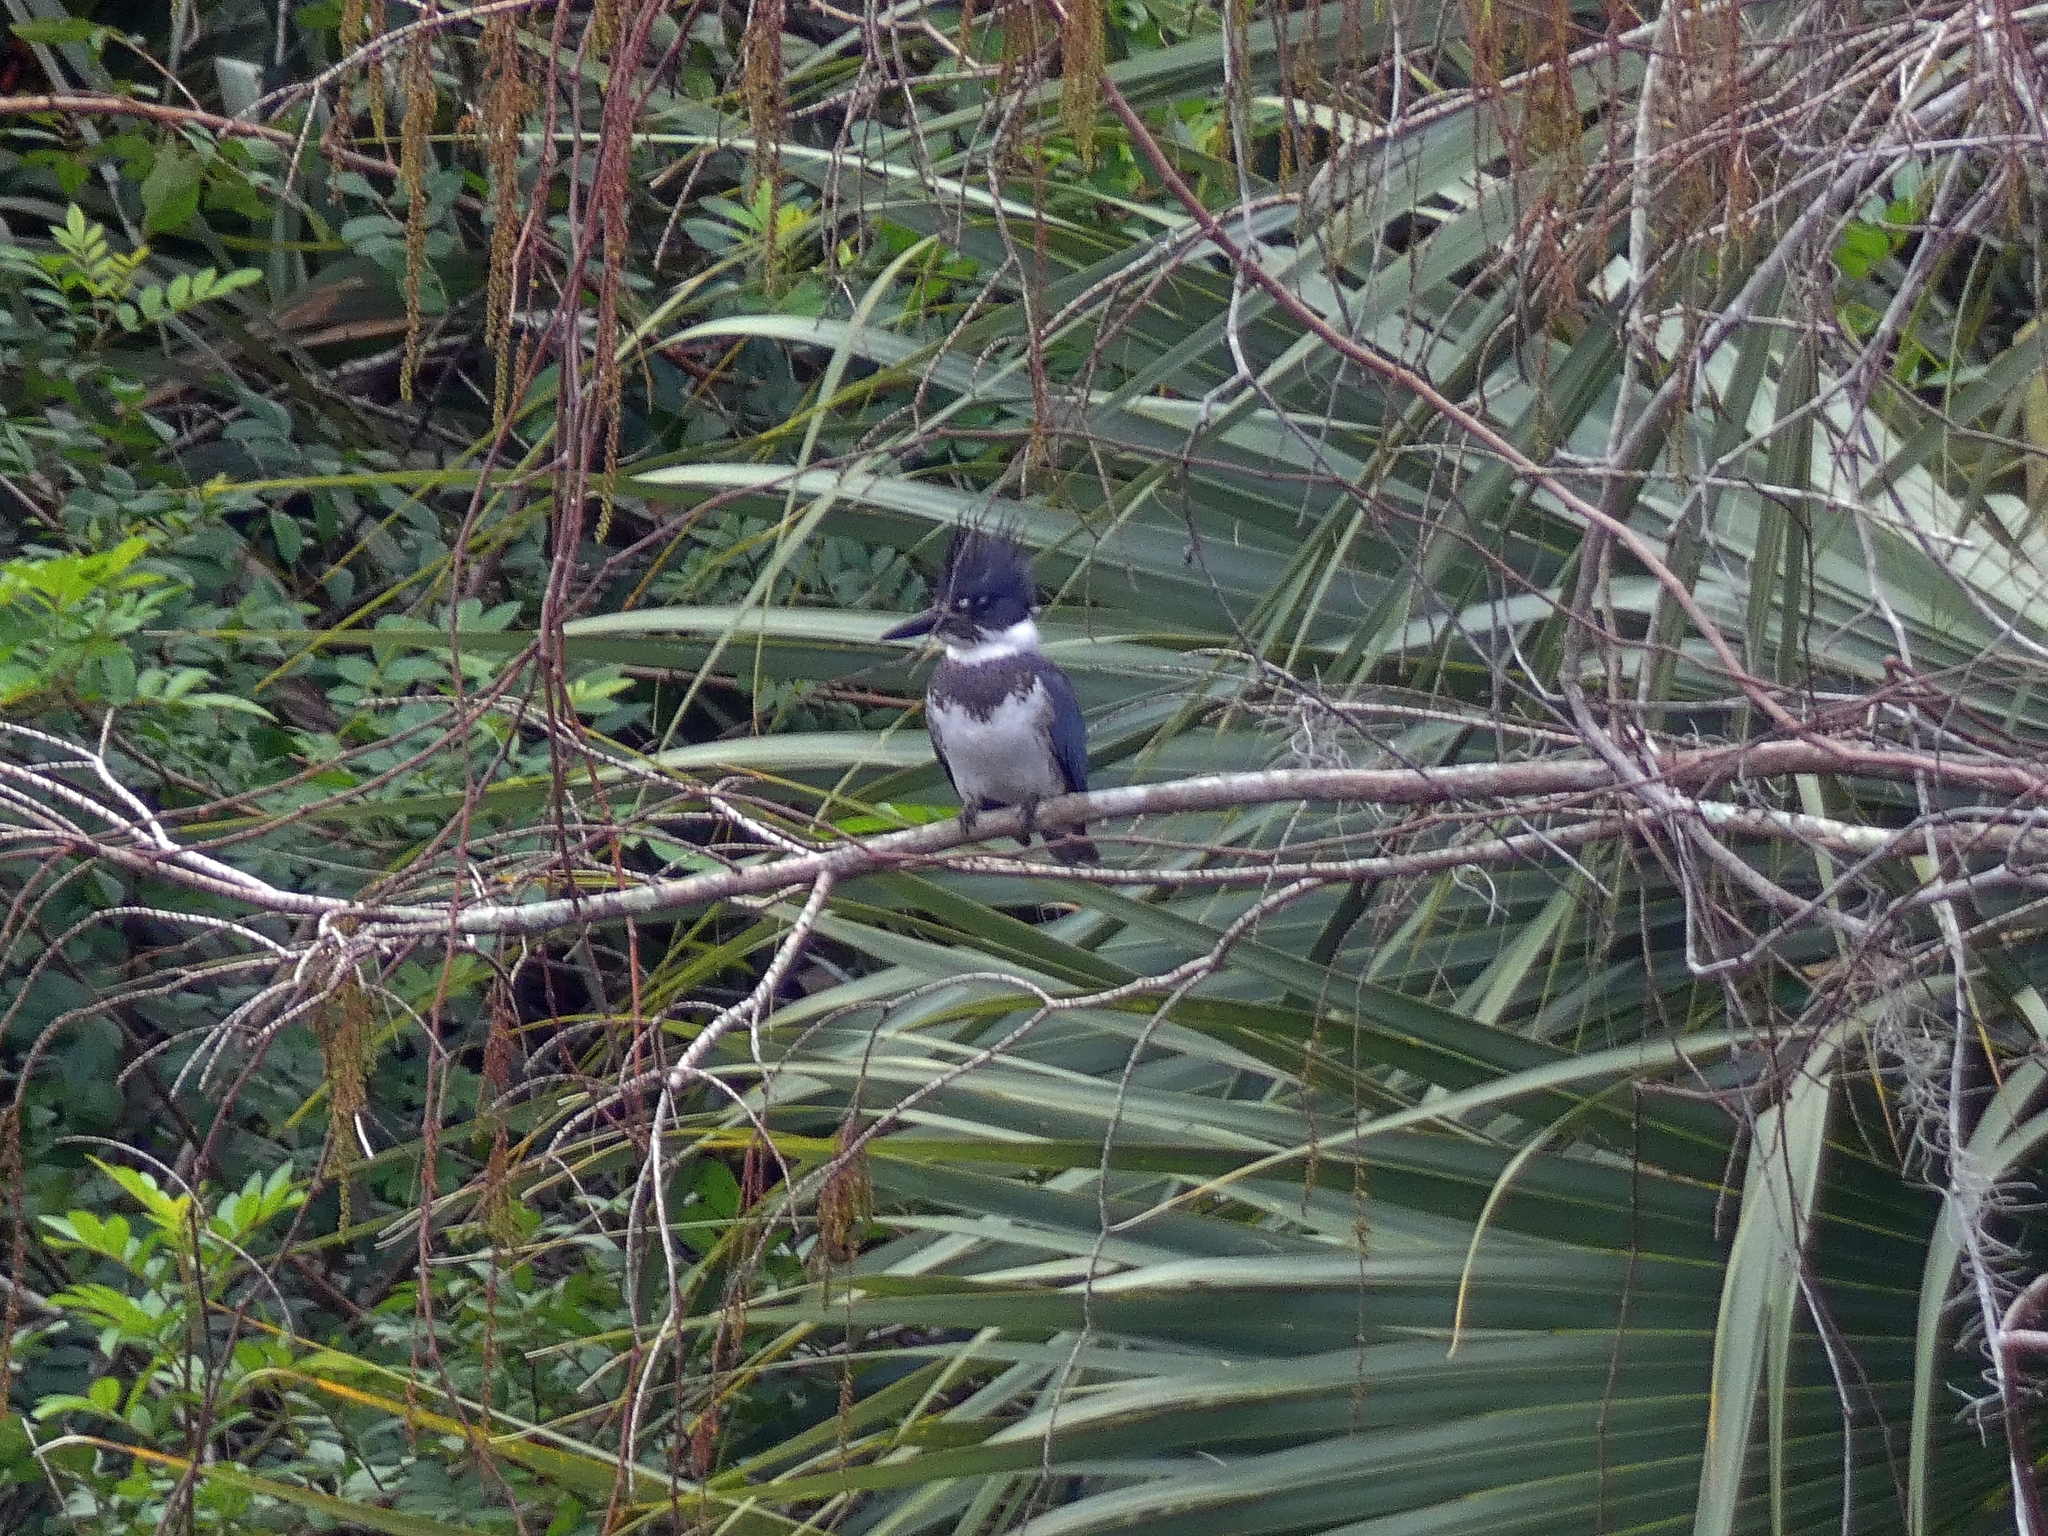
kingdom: Animalia
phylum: Chordata
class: Aves
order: Coraciiformes
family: Alcedinidae
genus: Megaceryle
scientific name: Megaceryle alcyon
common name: Belted kingfisher
